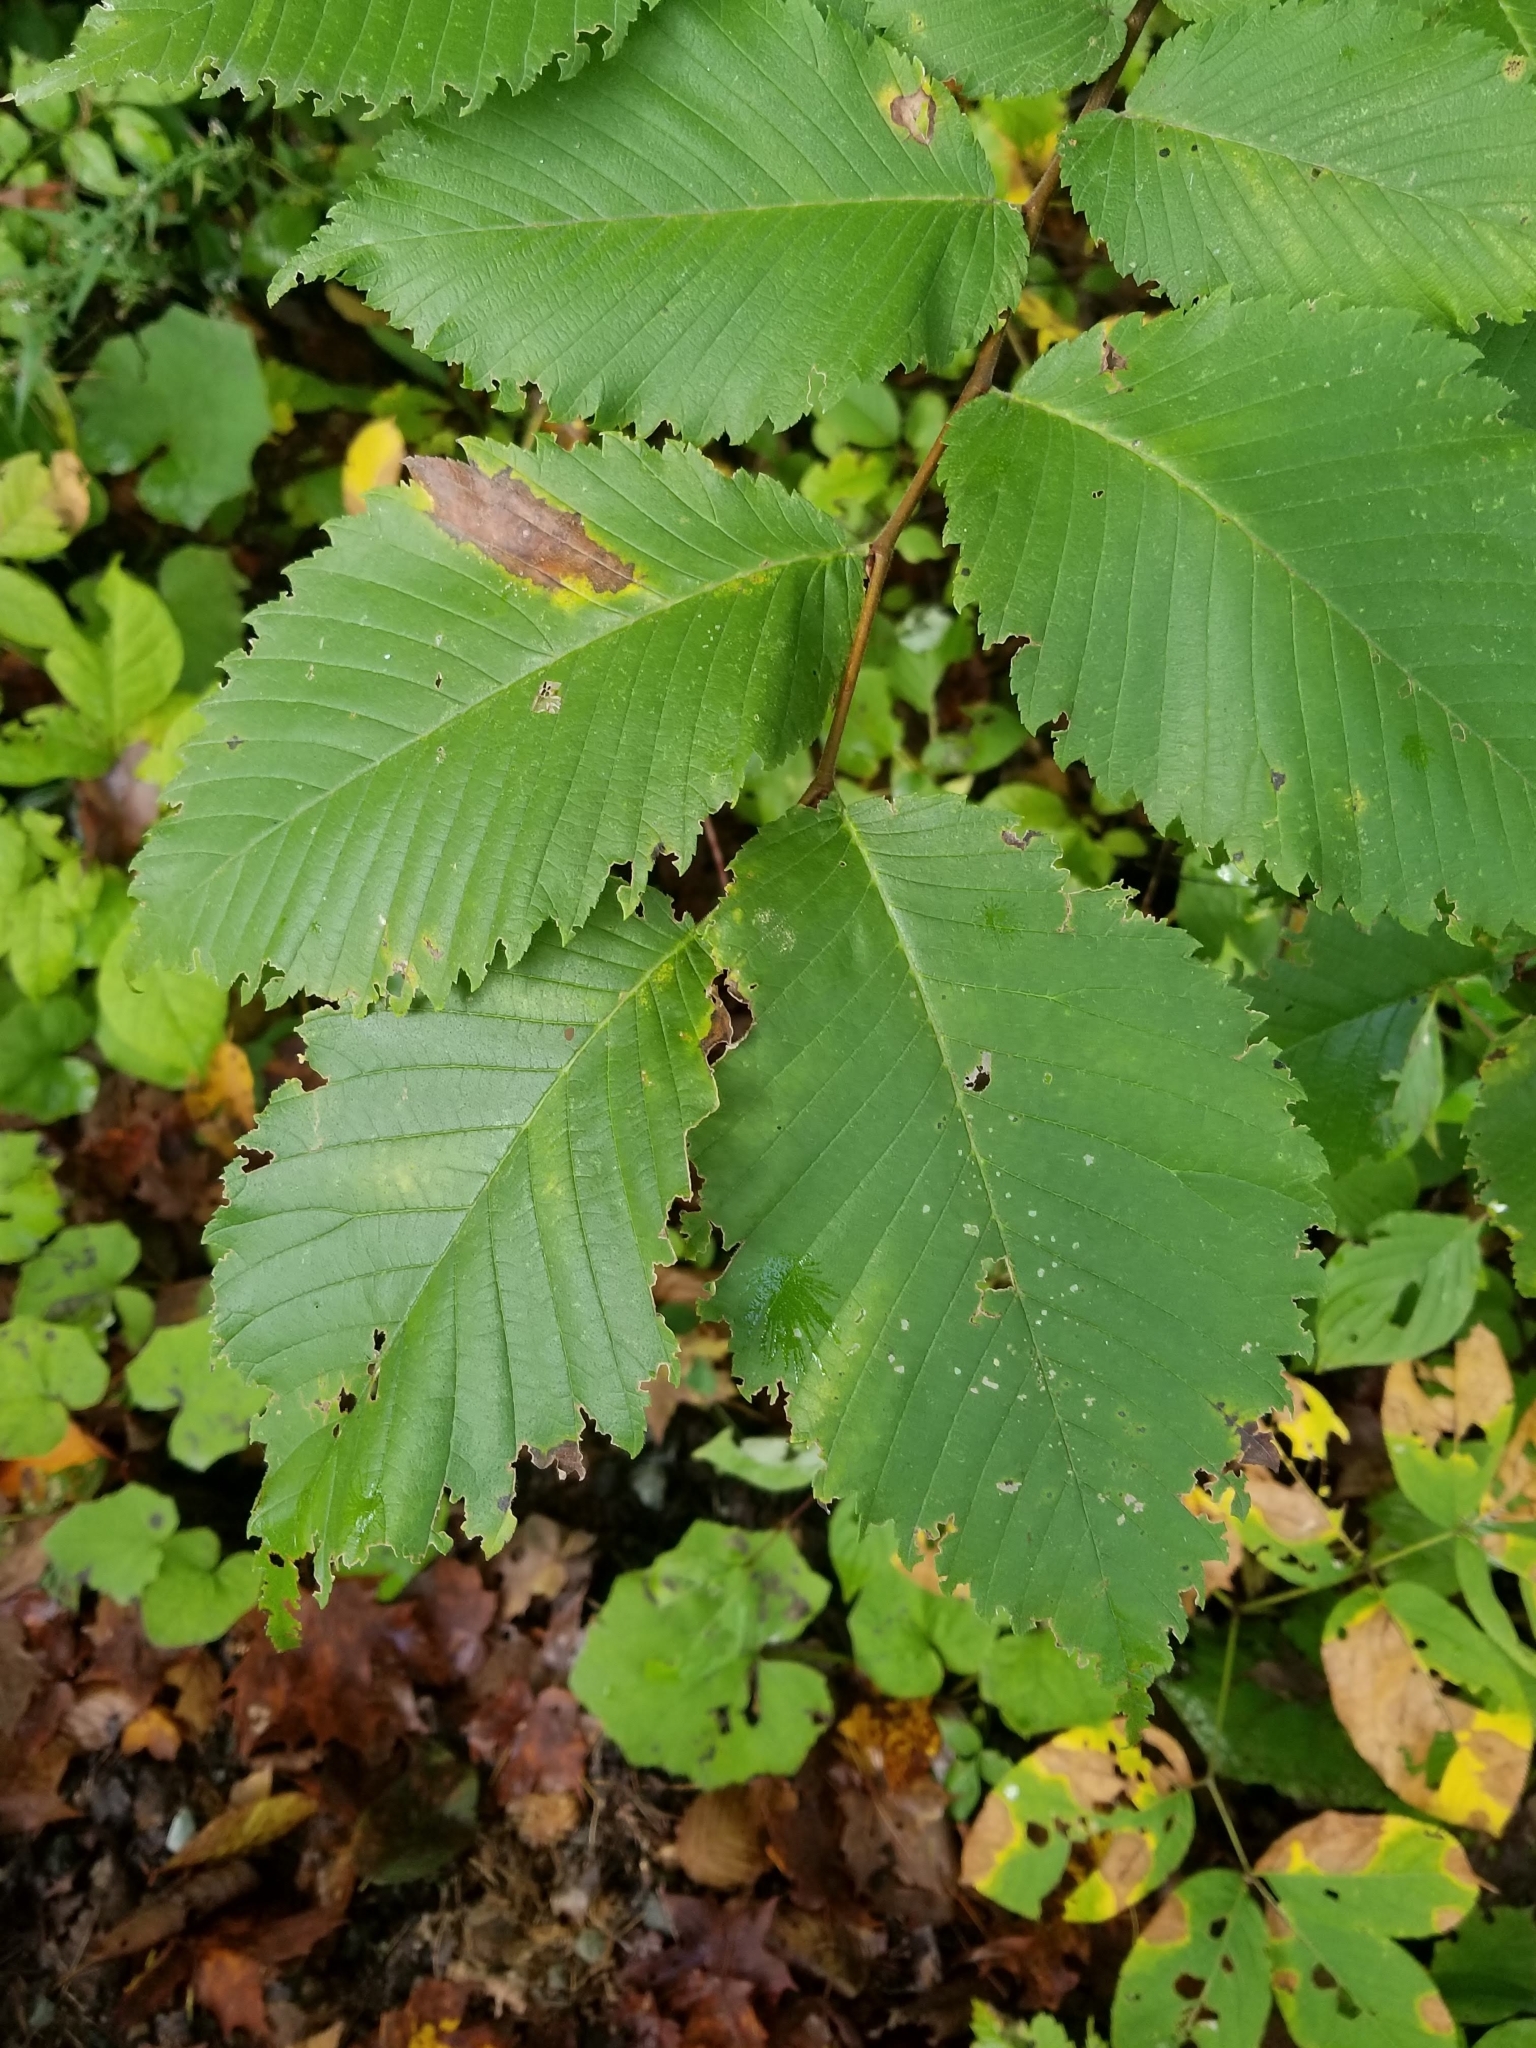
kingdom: Plantae
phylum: Tracheophyta
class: Magnoliopsida
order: Rosales
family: Ulmaceae
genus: Ulmus
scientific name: Ulmus americana
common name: American elm
